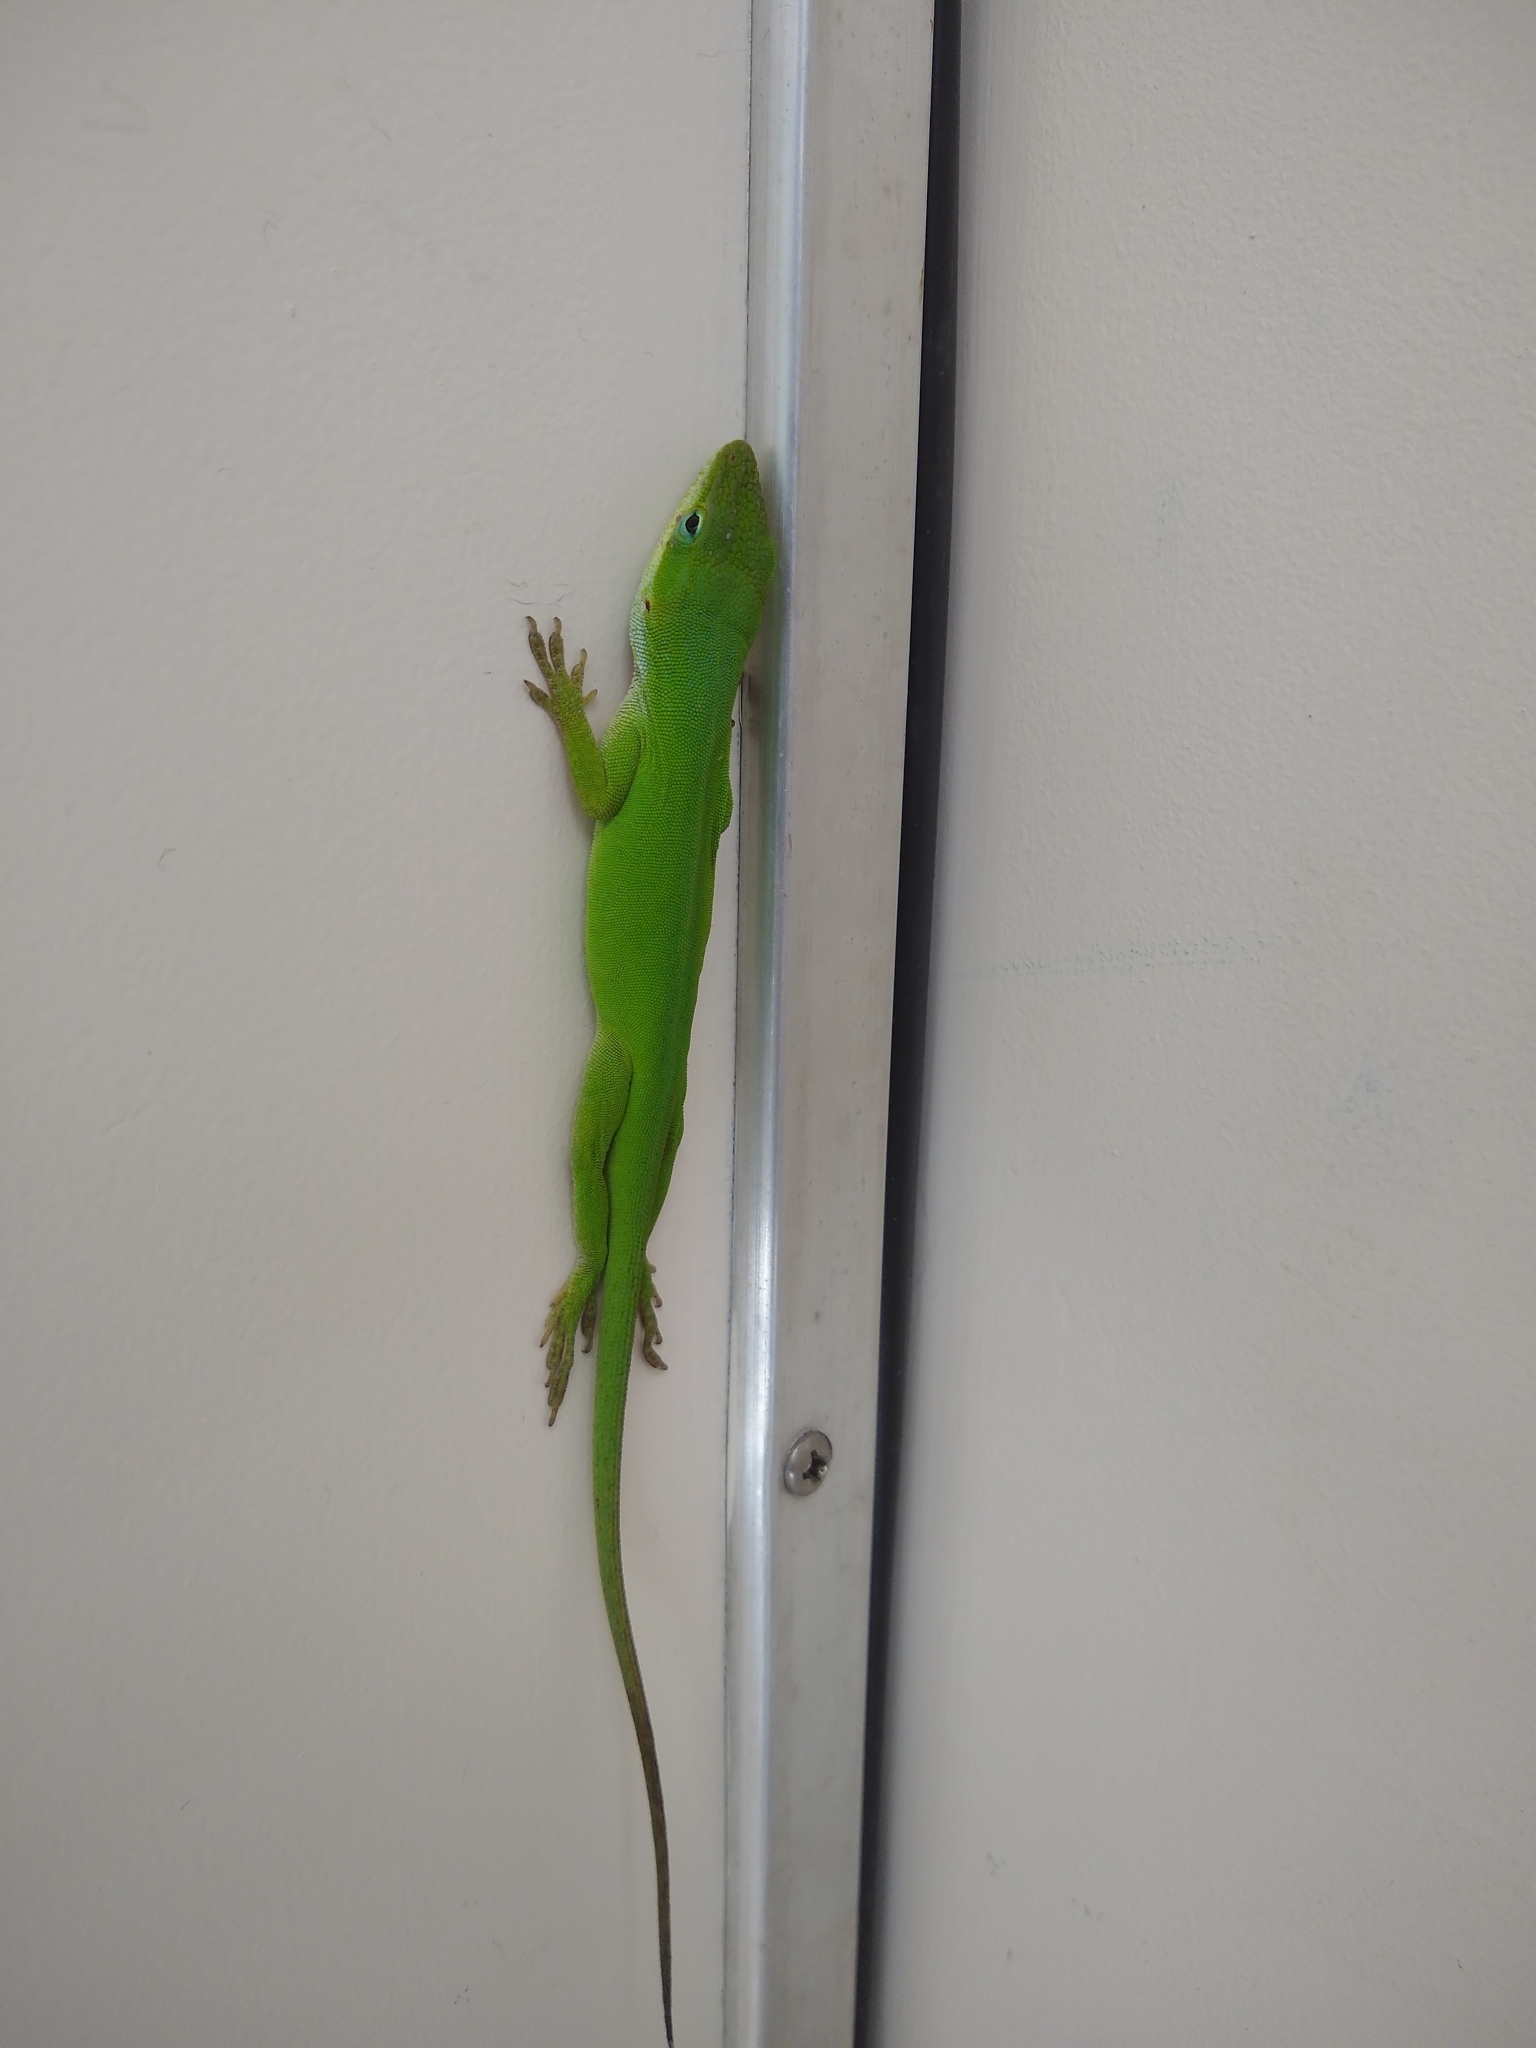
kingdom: Animalia
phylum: Chordata
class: Squamata
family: Dactyloidae
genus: Anolis
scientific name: Anolis carolinensis
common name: Green anole
